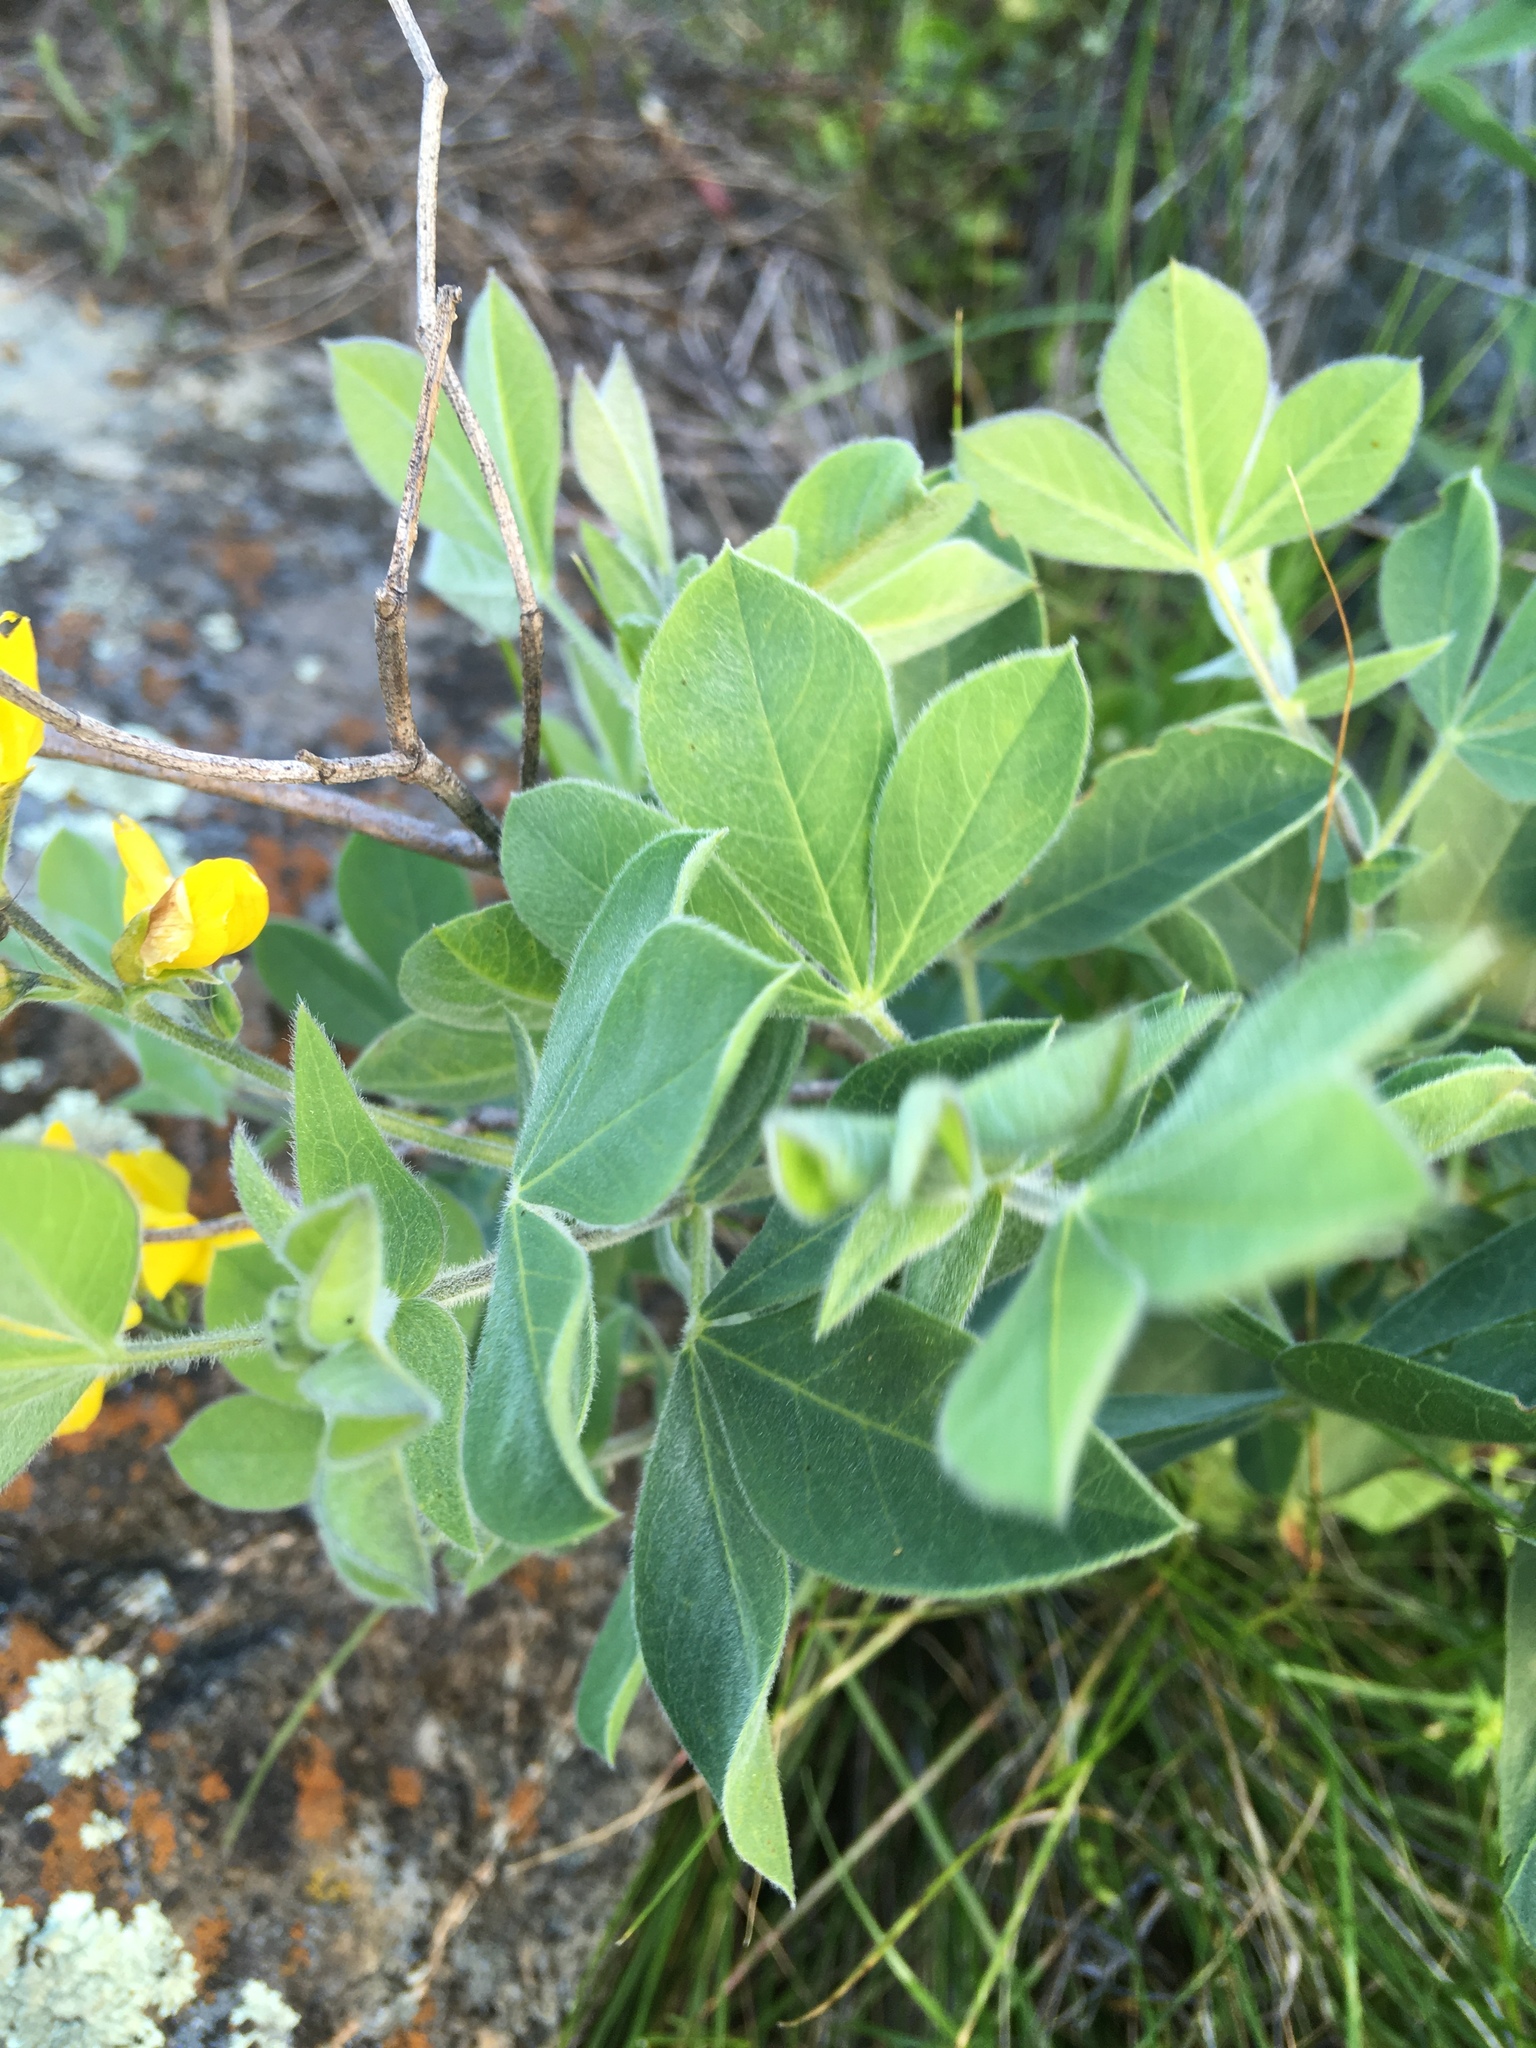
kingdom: Plantae
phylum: Tracheophyta
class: Magnoliopsida
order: Fabales
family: Fabaceae
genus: Thermopsis
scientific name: Thermopsis californica
